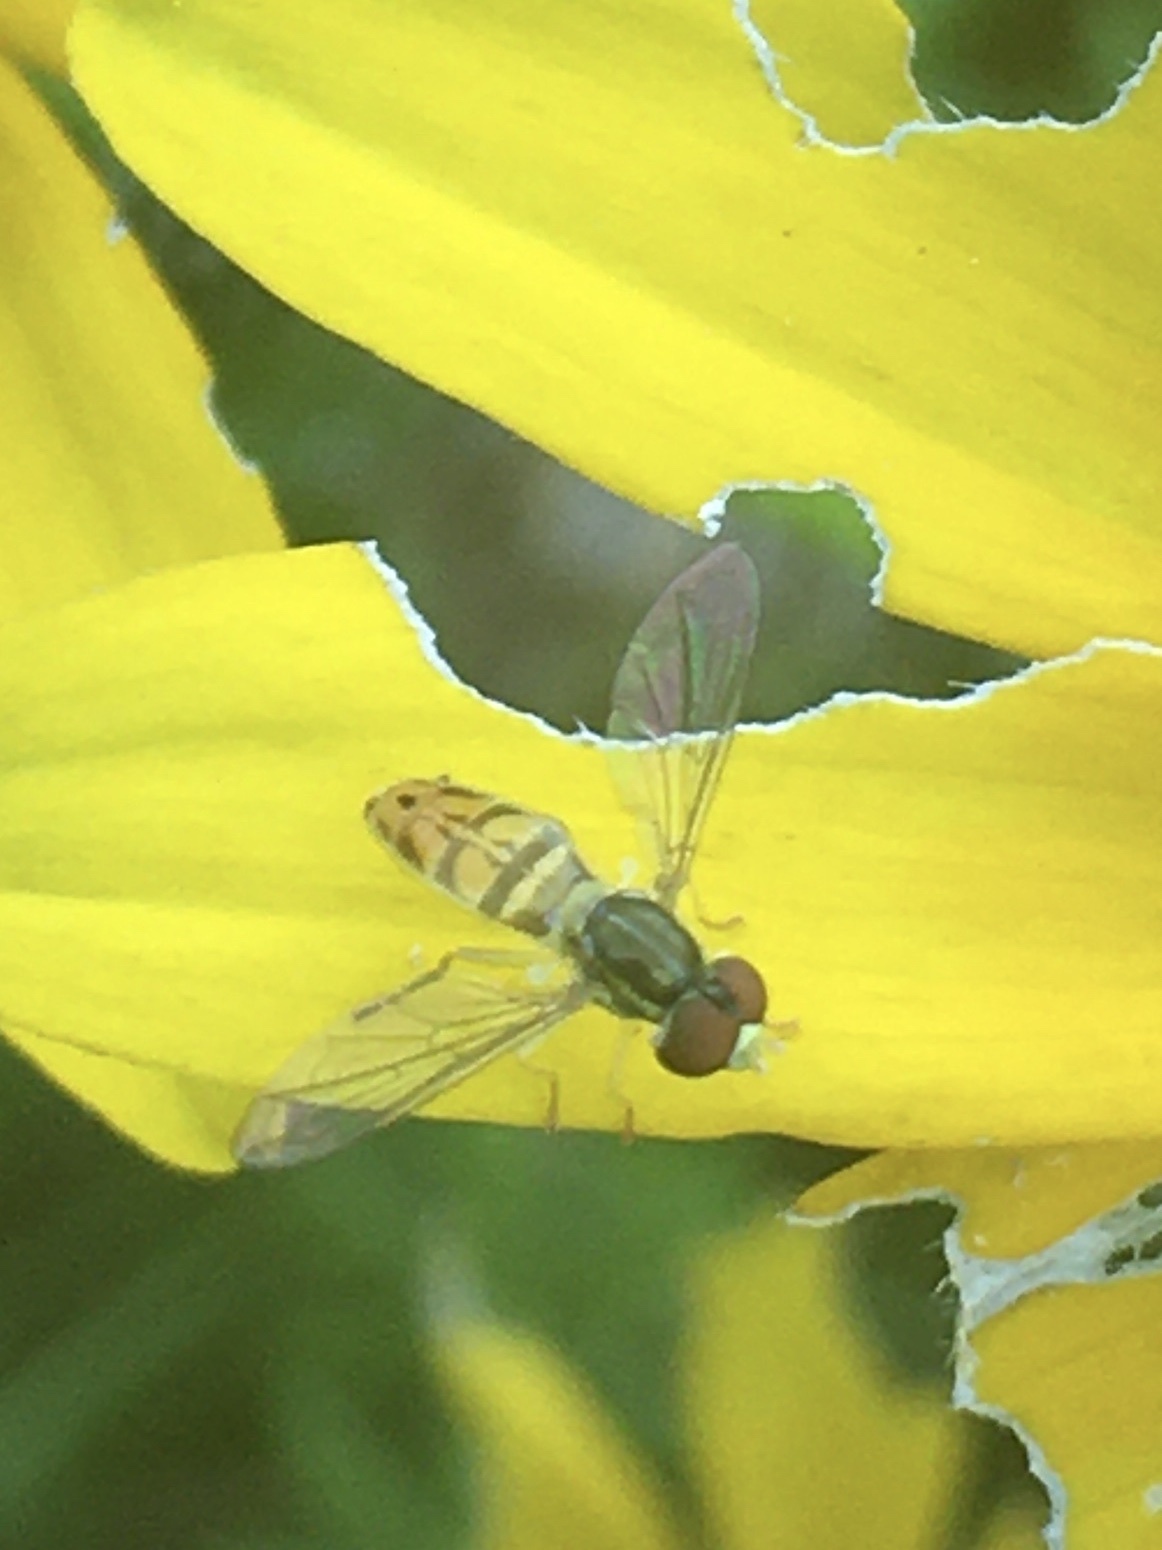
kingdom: Animalia
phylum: Arthropoda
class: Insecta
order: Diptera
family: Syrphidae
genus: Toxomerus
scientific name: Toxomerus marginatus
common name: Syrphid fly
